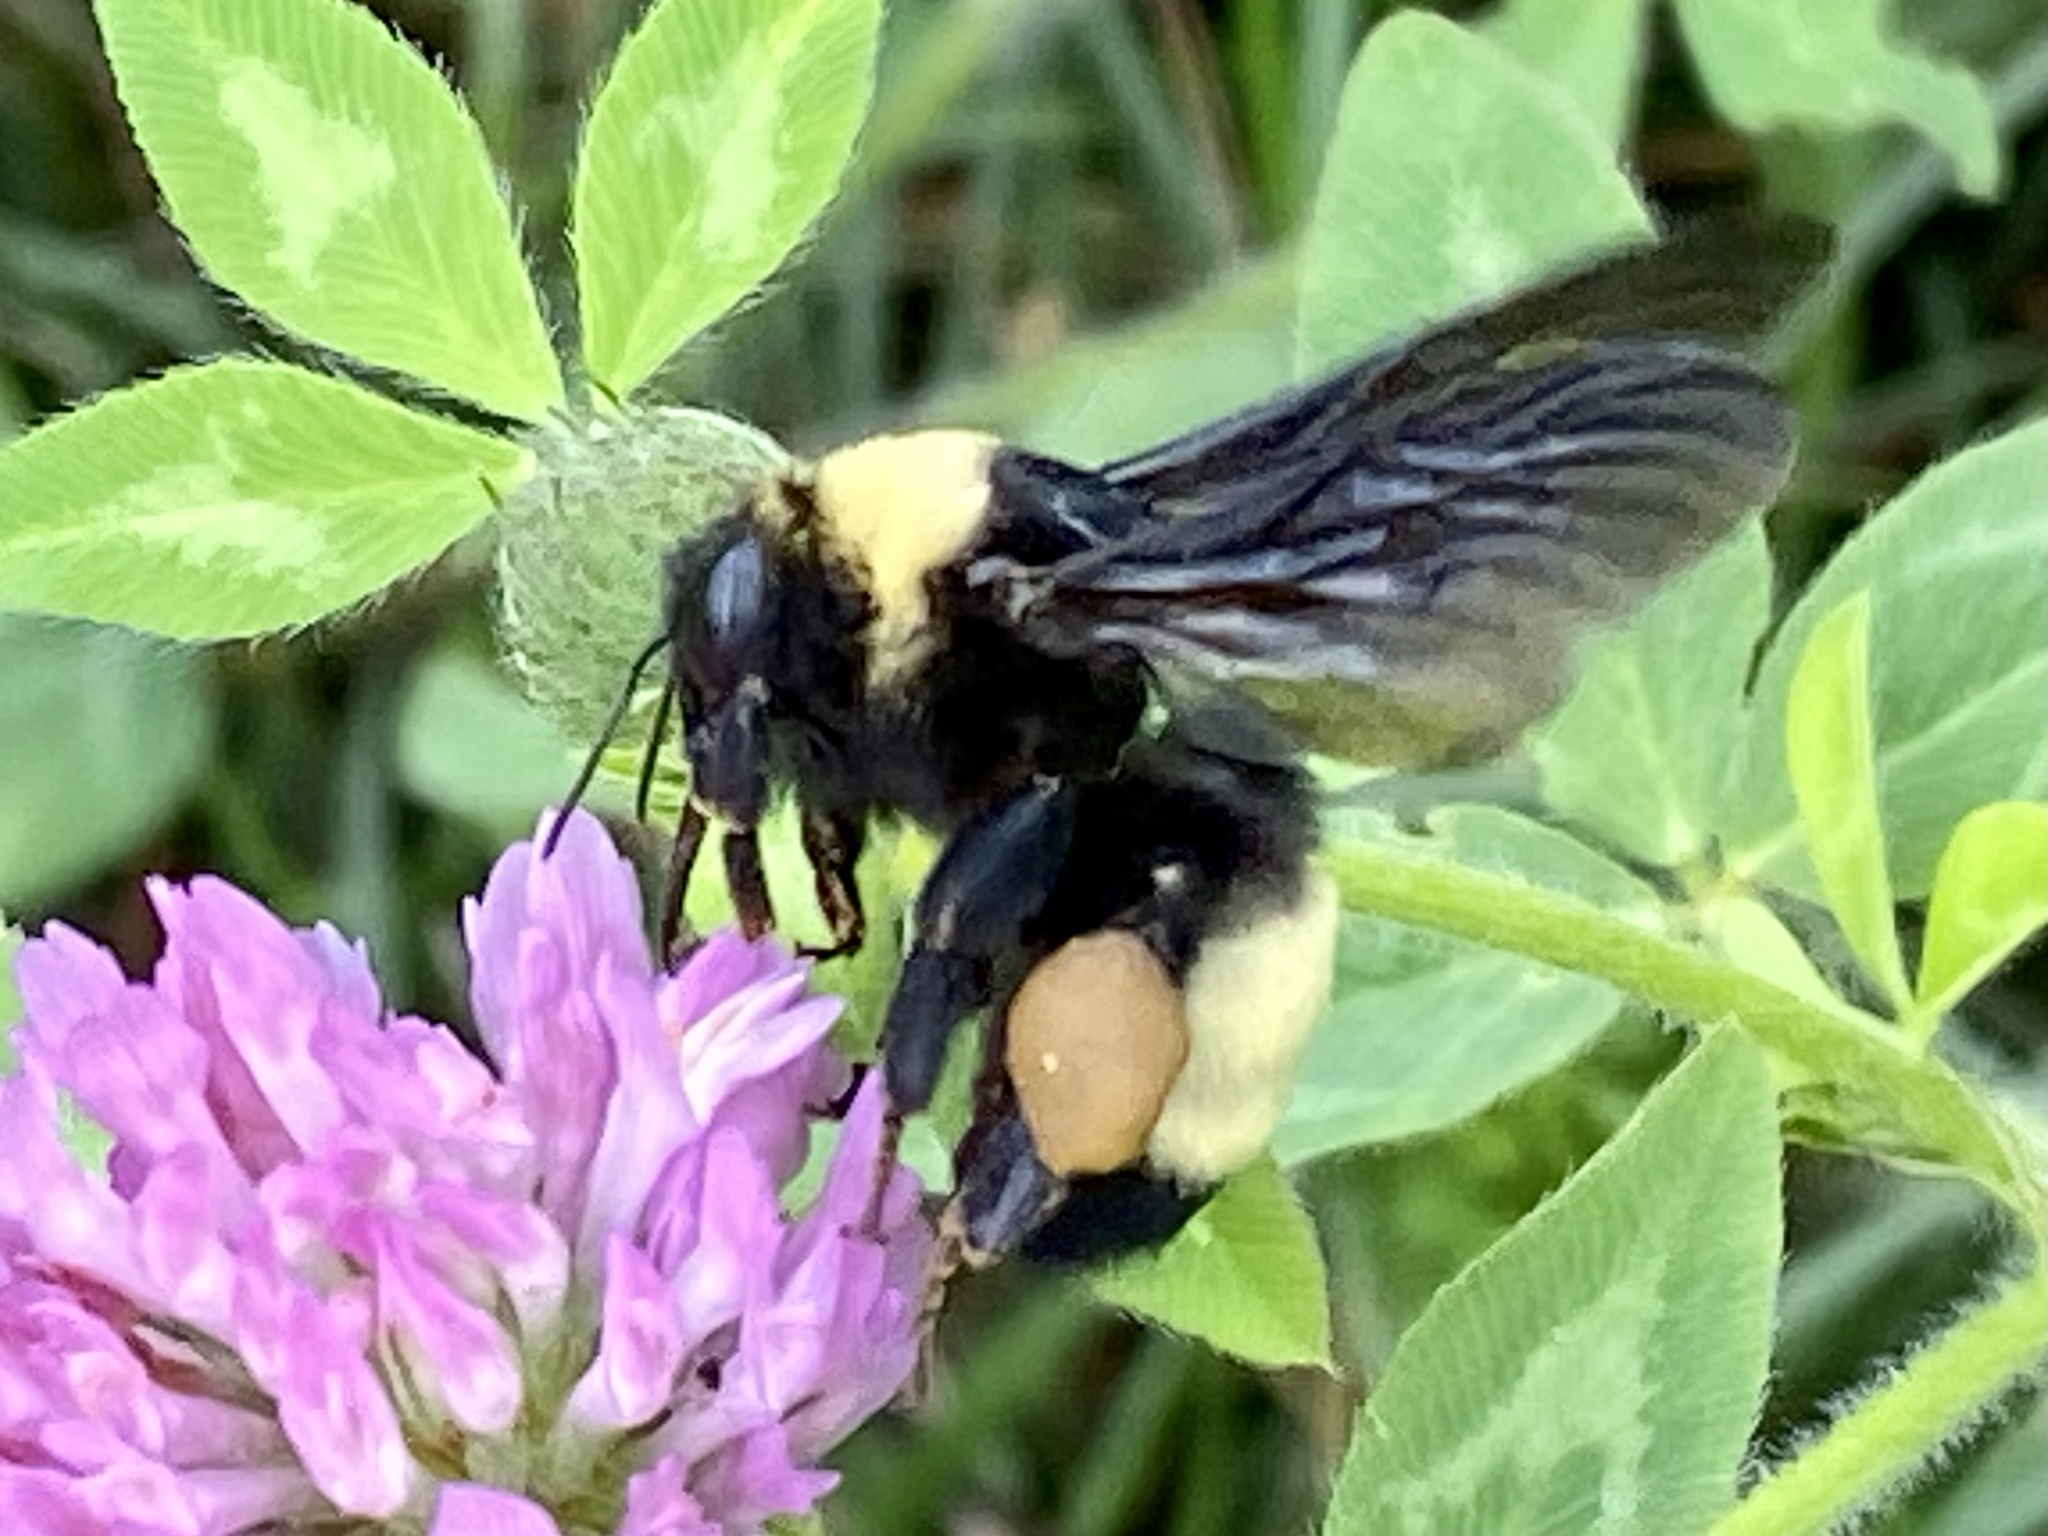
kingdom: Animalia
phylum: Arthropoda
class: Insecta
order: Hymenoptera
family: Apidae
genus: Bombus
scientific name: Bombus auricomus
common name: Black and gold bumble bee
